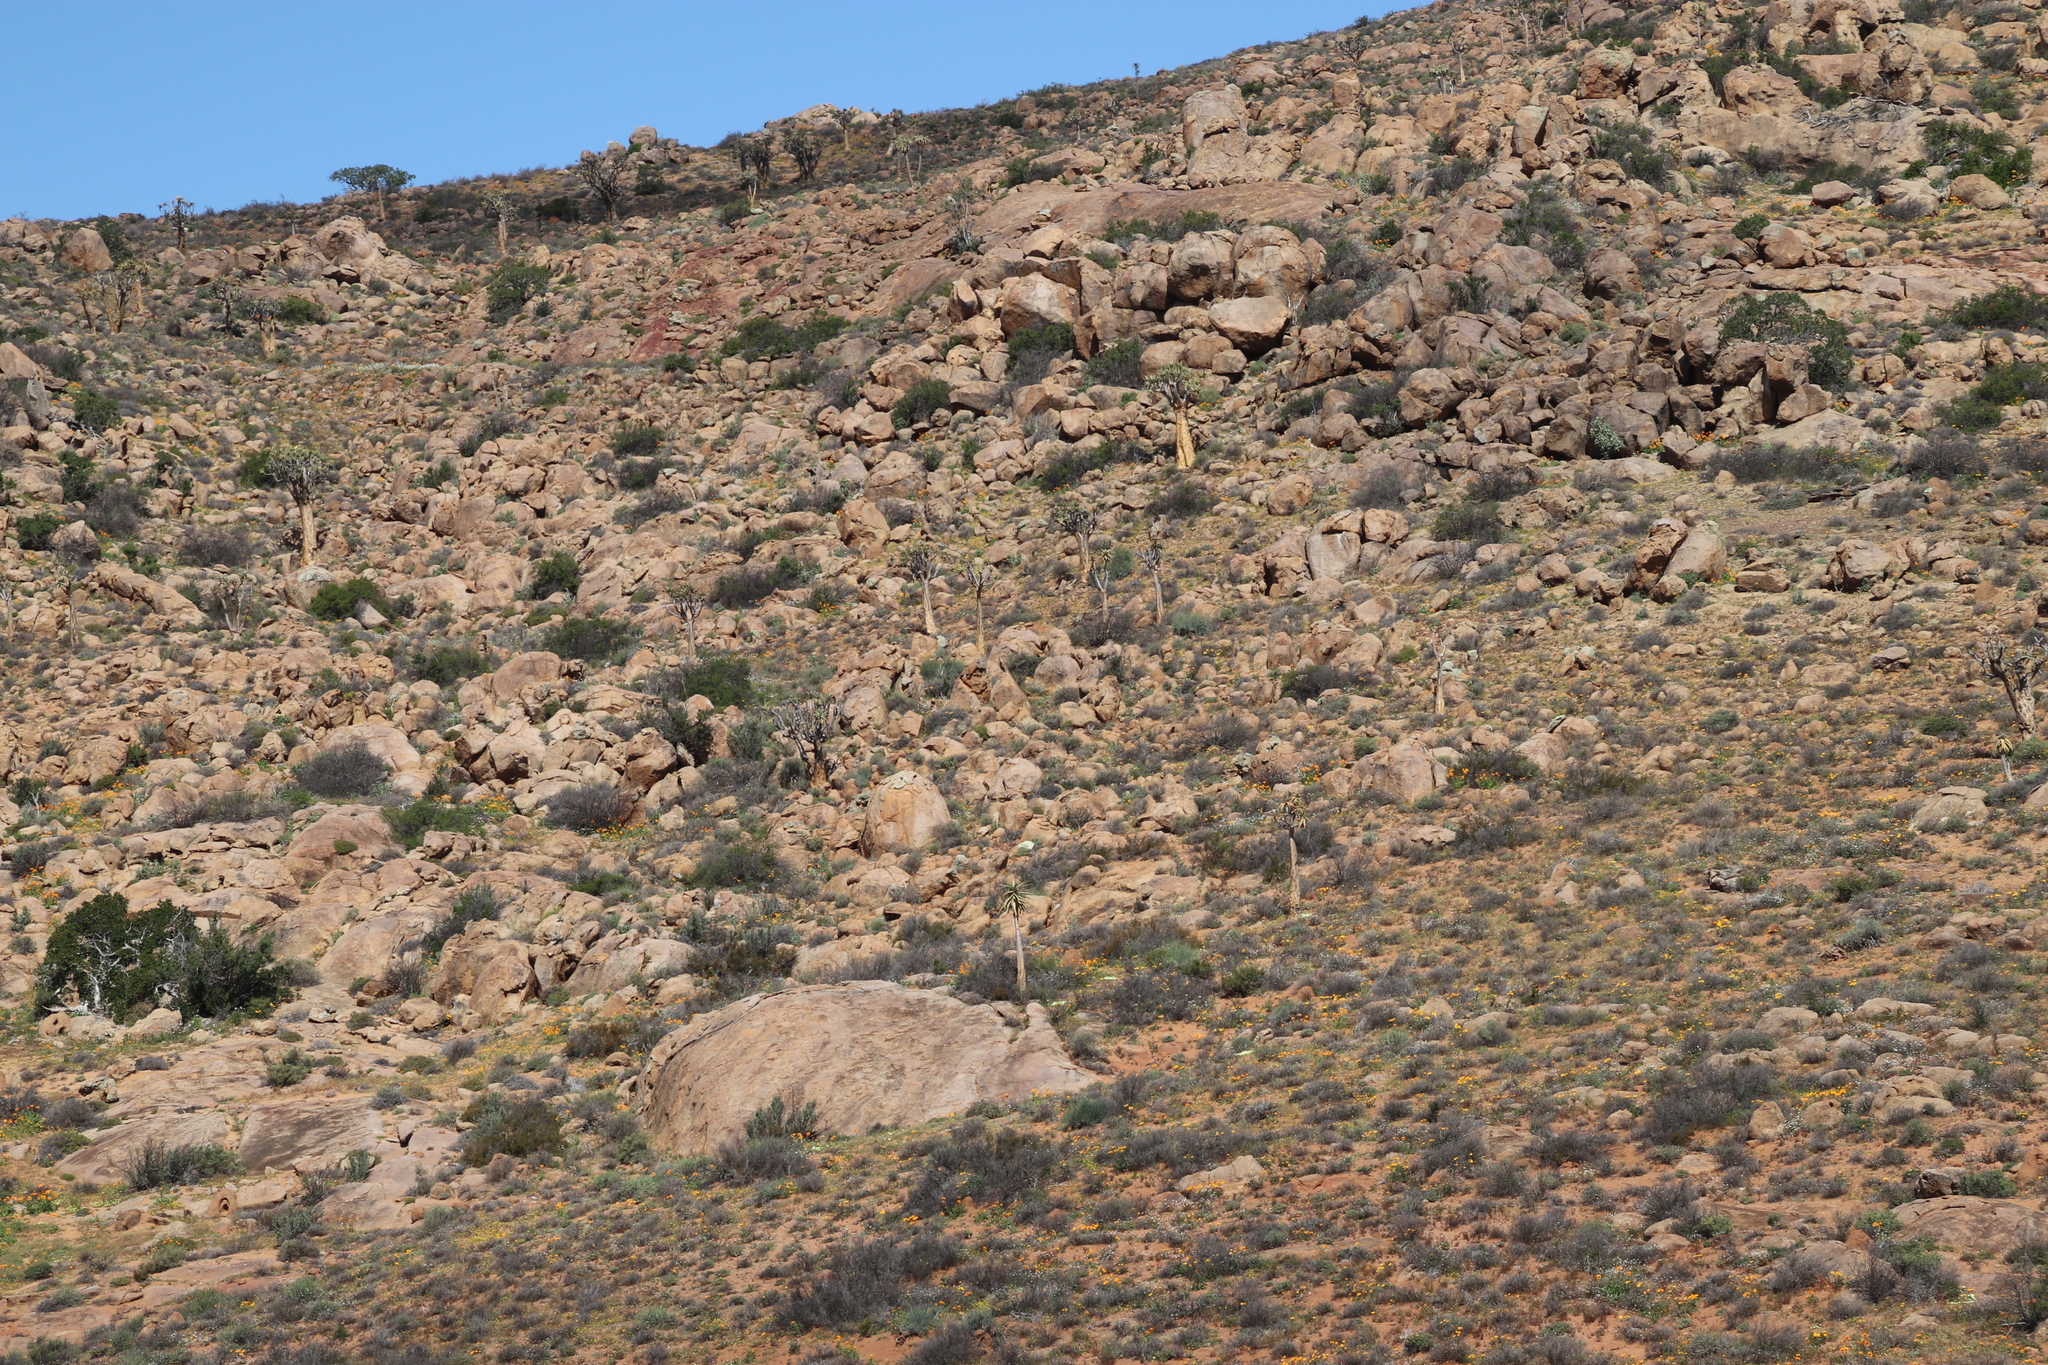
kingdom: Plantae
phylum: Tracheophyta
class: Liliopsida
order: Asparagales
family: Asphodelaceae
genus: Aloidendron
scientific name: Aloidendron dichotomum
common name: Quiver tree
